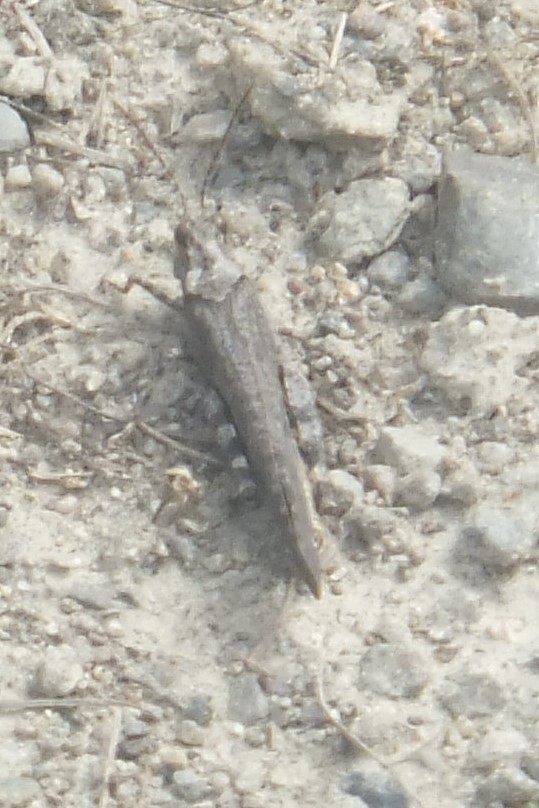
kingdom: Animalia
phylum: Arthropoda
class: Insecta
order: Orthoptera
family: Acrididae
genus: Trimerotropis
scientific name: Trimerotropis verruculata
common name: Crackling forest grasshopper
